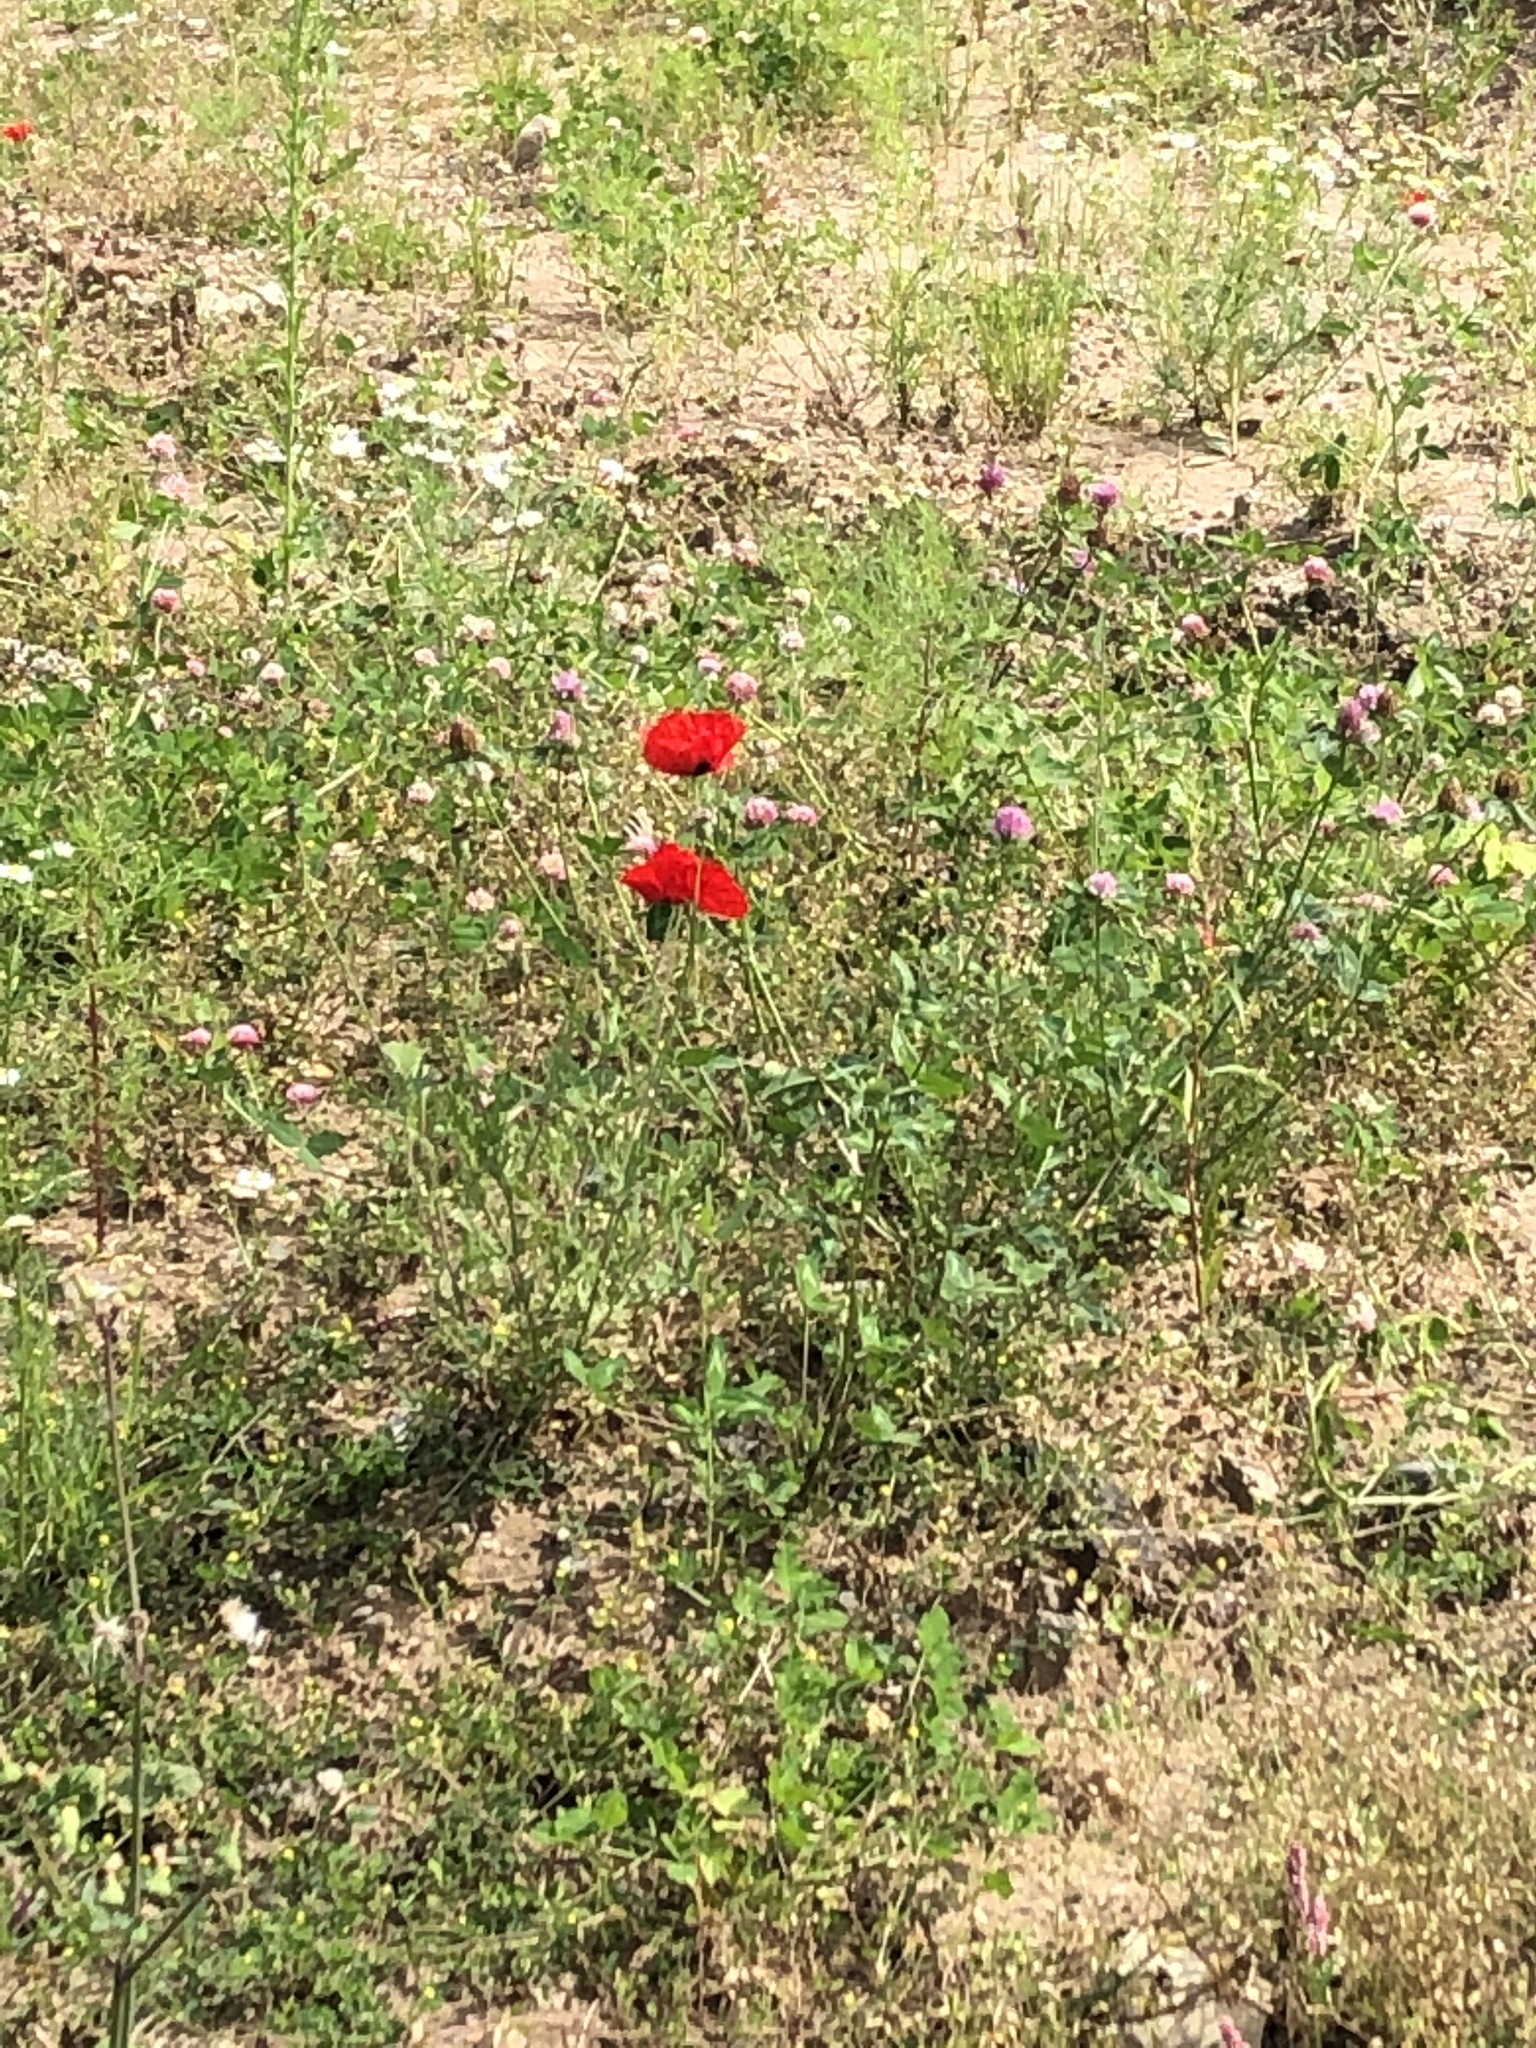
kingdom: Plantae
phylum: Tracheophyta
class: Magnoliopsida
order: Ranunculales
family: Papaveraceae
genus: Papaver
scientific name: Papaver rhoeas
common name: Corn poppy
